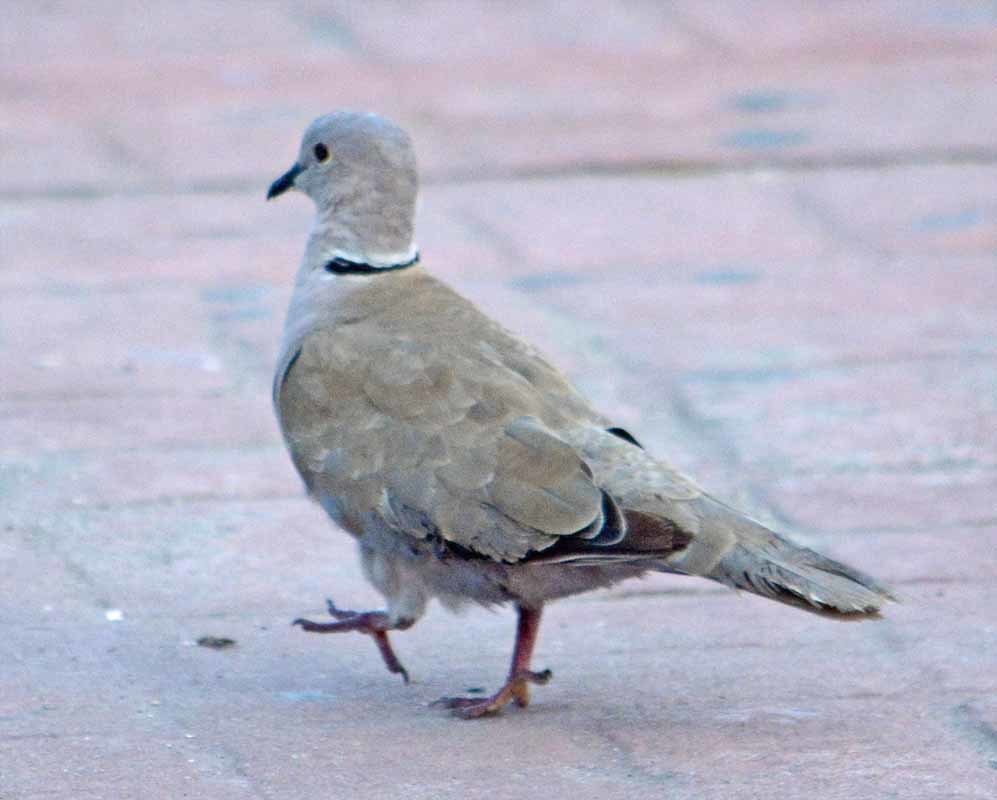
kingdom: Animalia
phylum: Chordata
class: Aves
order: Columbiformes
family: Columbidae
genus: Streptopelia
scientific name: Streptopelia decaocto
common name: Eurasian collared dove
